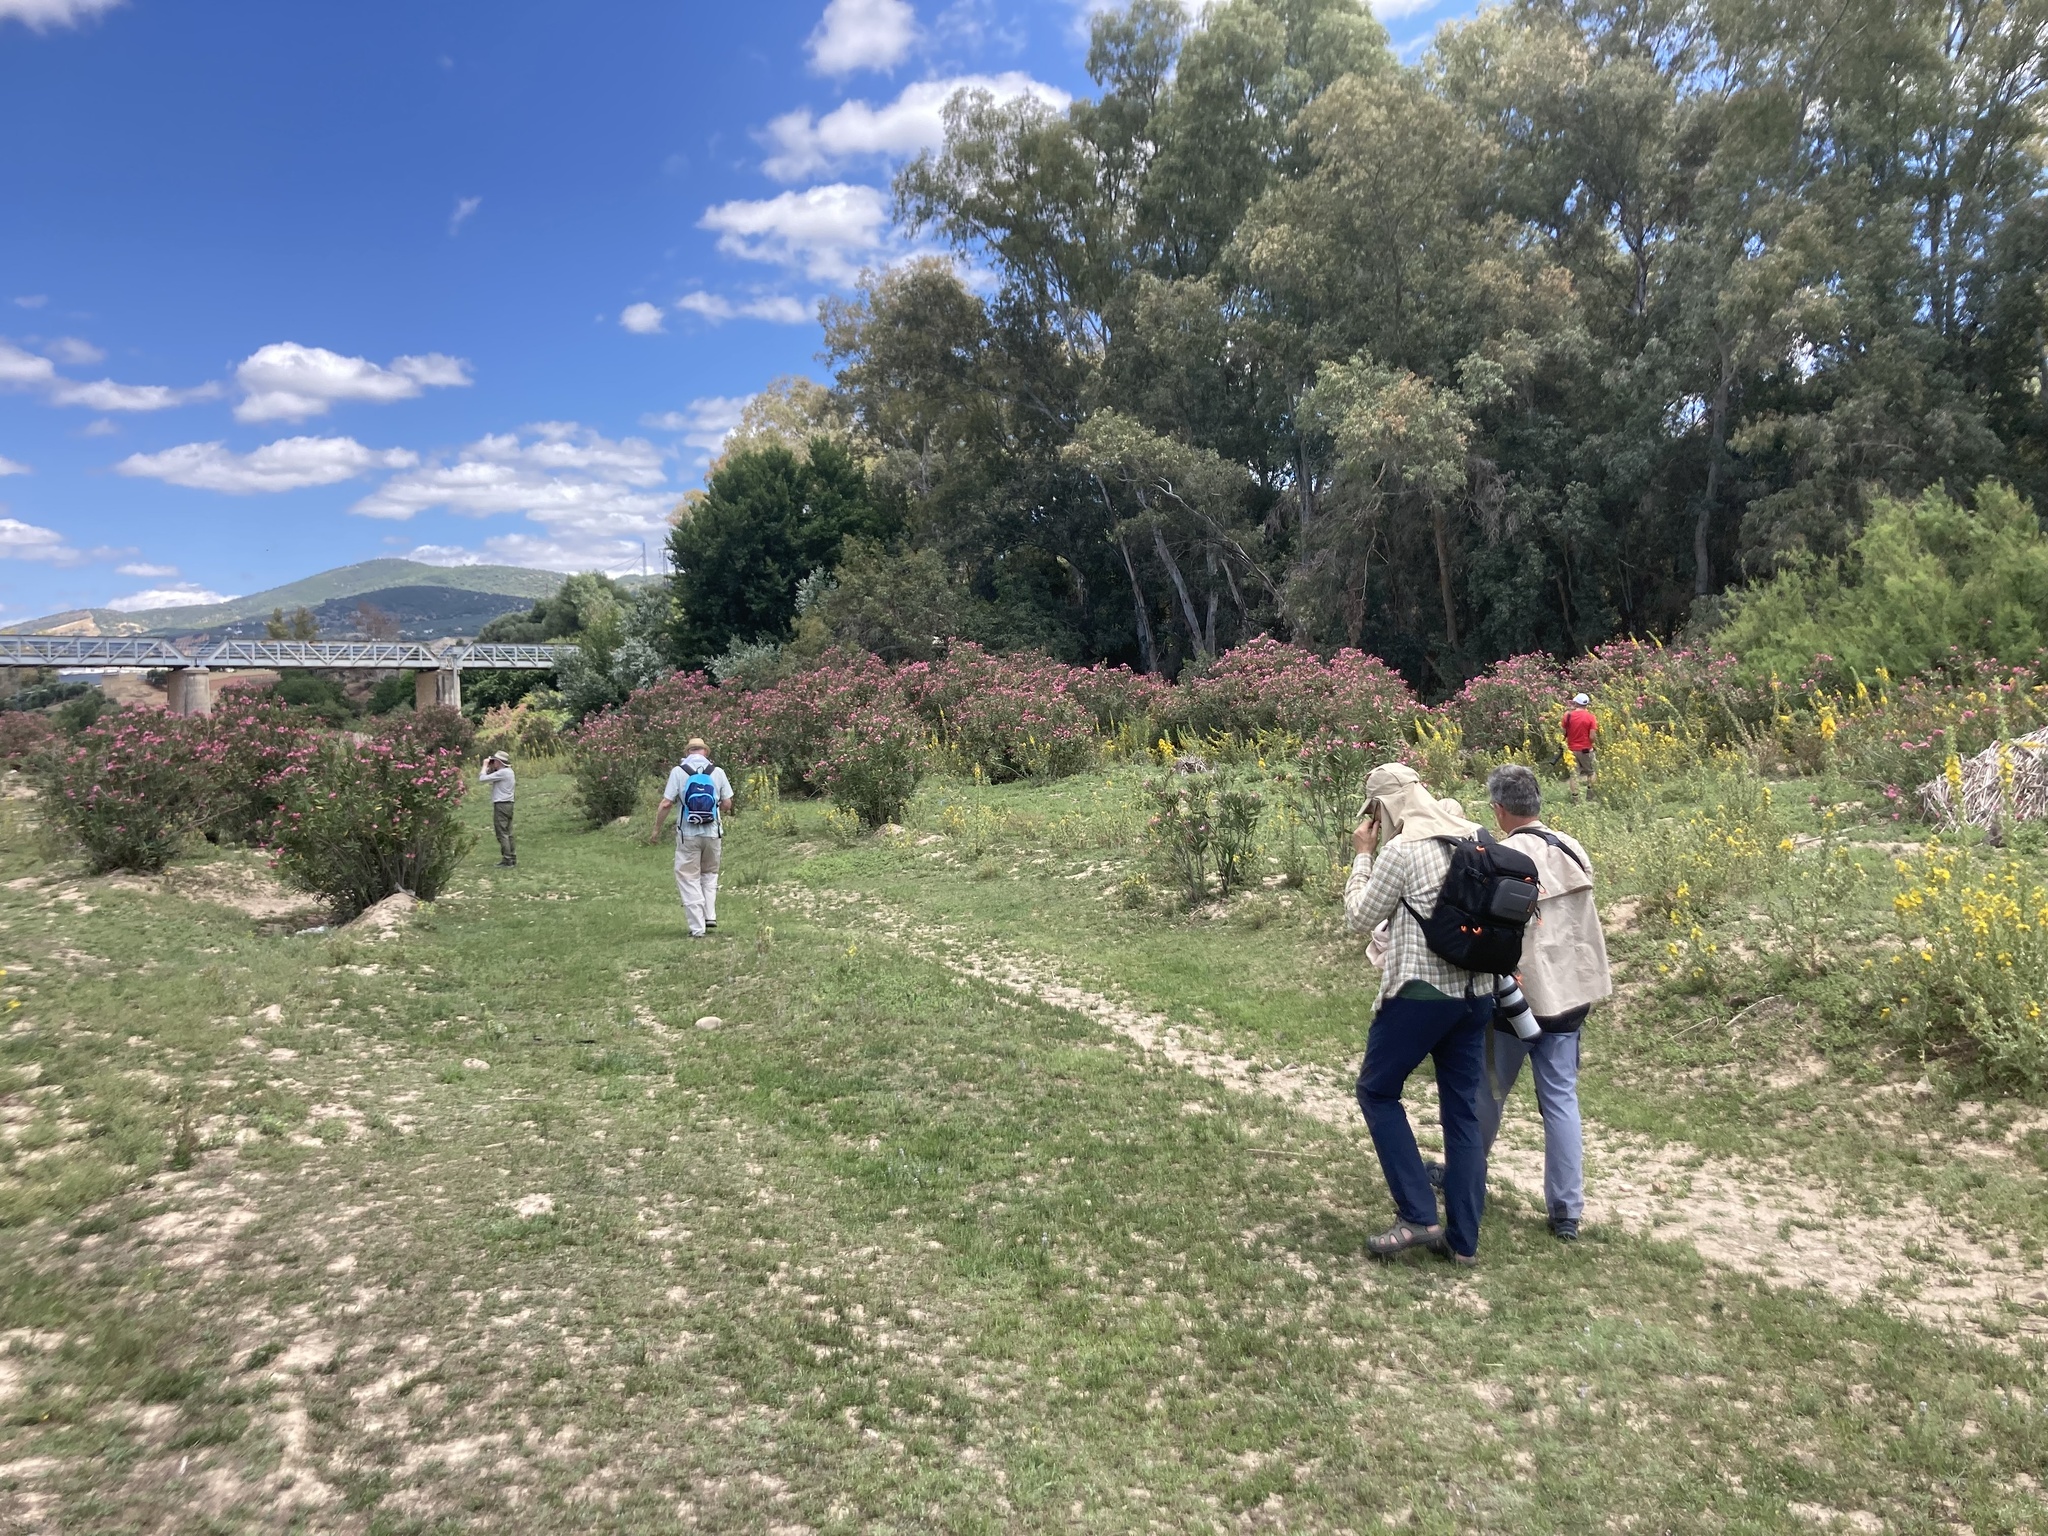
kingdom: Plantae
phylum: Tracheophyta
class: Magnoliopsida
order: Gentianales
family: Apocynaceae
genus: Nerium
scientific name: Nerium oleander
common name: Oleander
